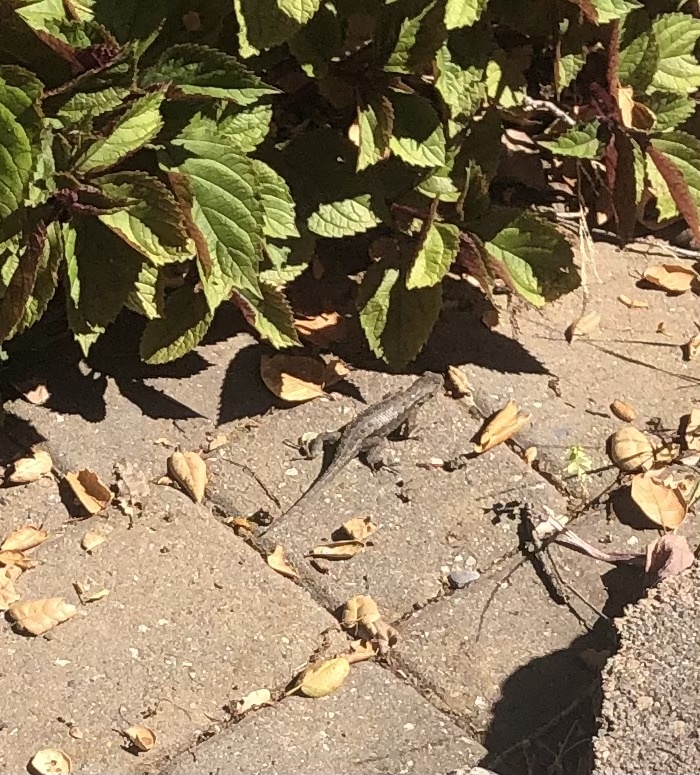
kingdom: Animalia
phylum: Chordata
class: Squamata
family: Phrynosomatidae
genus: Sceloporus
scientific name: Sceloporus occidentalis
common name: Western fence lizard
